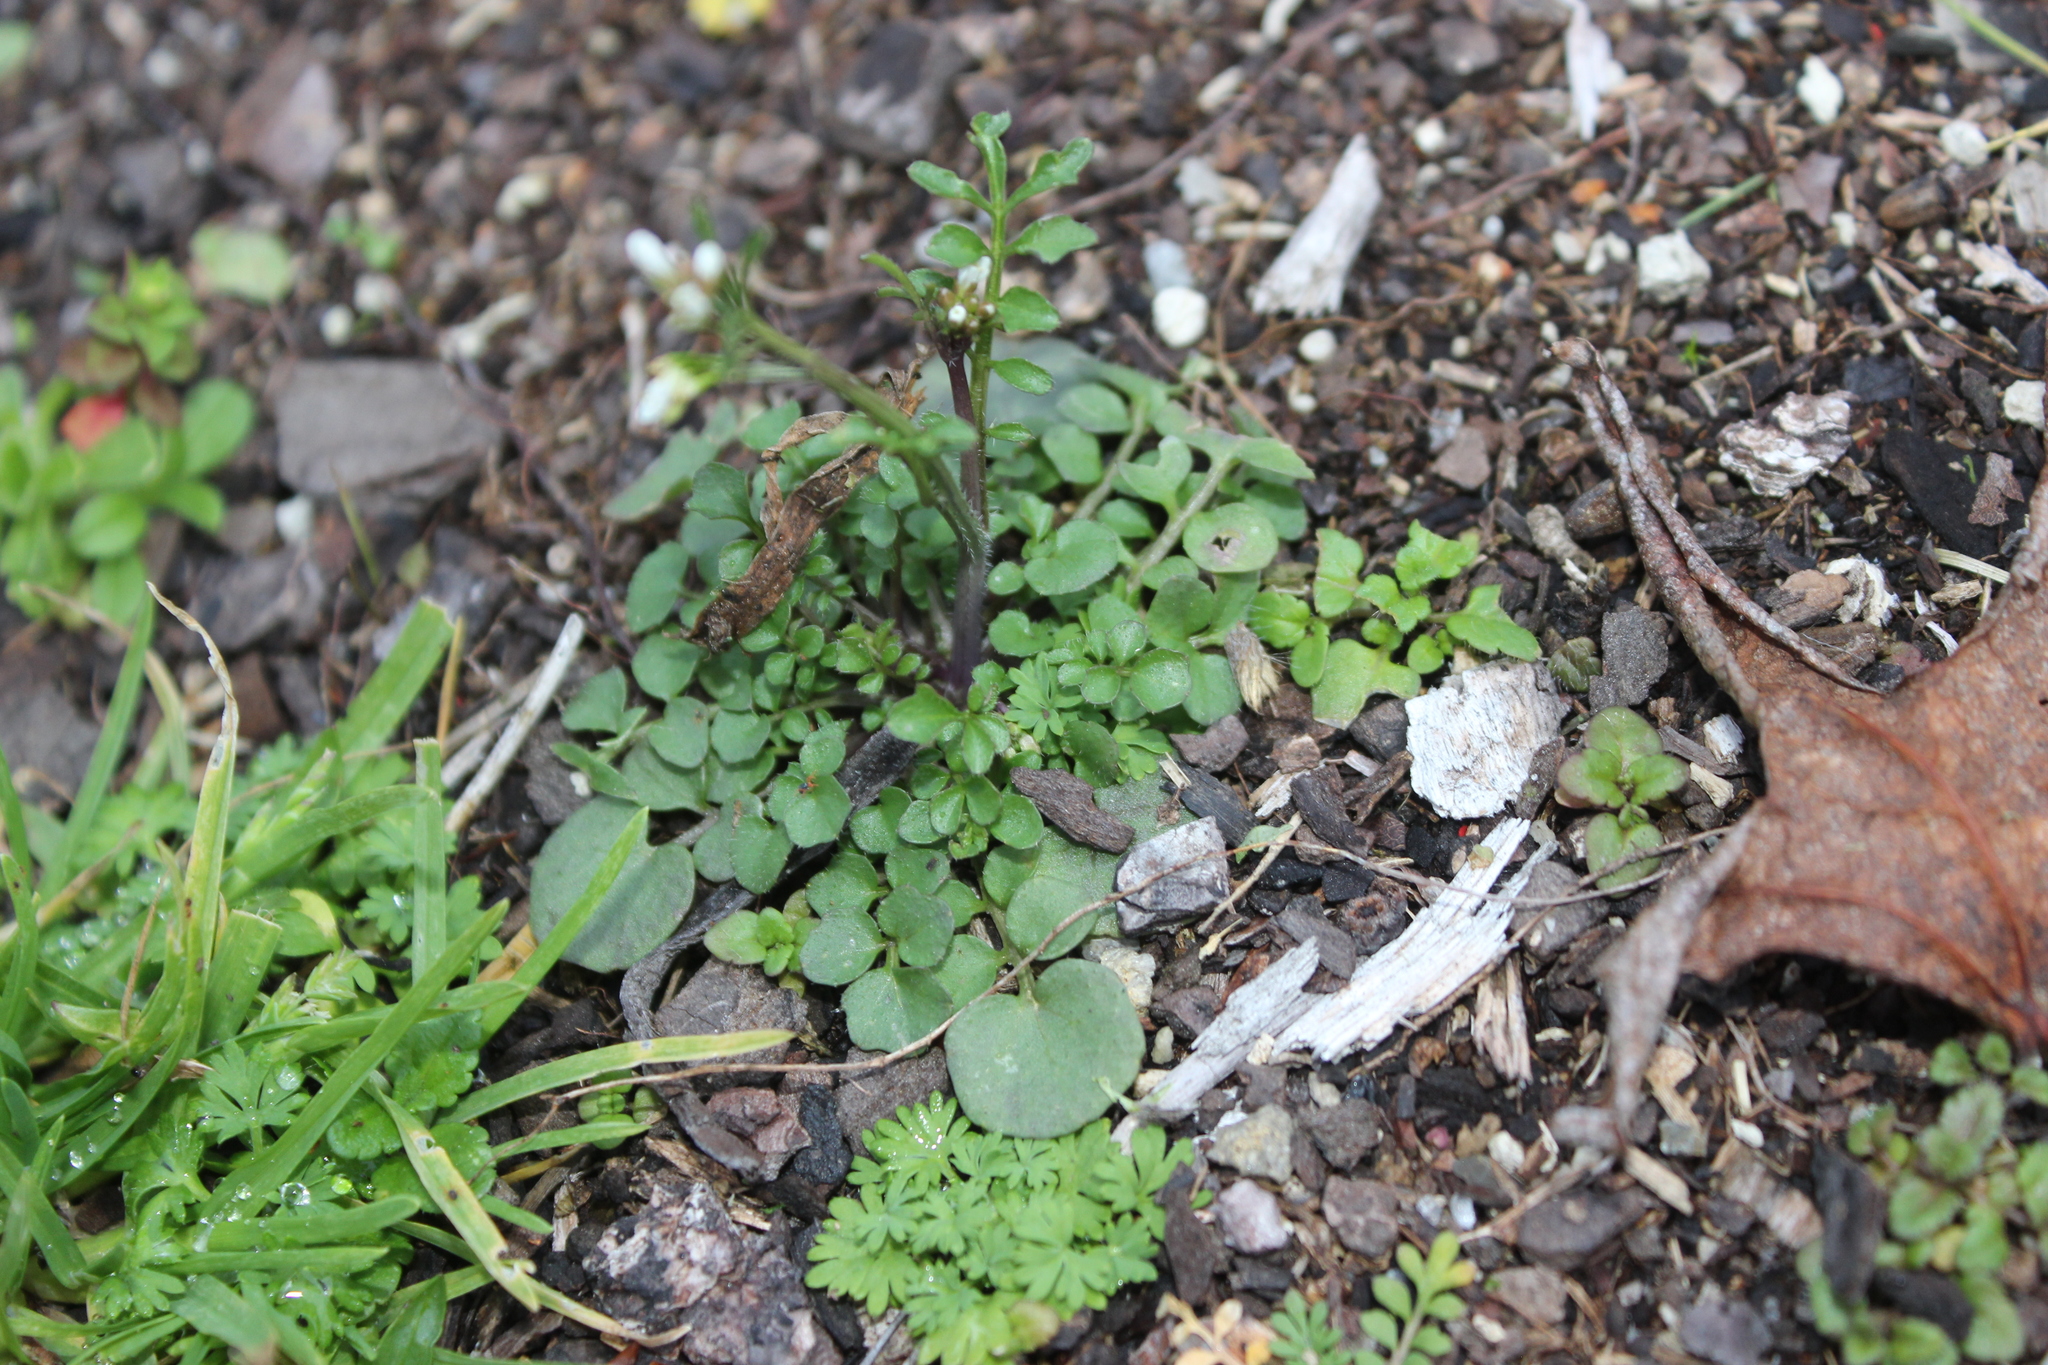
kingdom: Plantae
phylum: Tracheophyta
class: Magnoliopsida
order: Brassicales
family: Brassicaceae
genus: Cardamine
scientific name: Cardamine hirsuta
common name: Hairy bittercress
